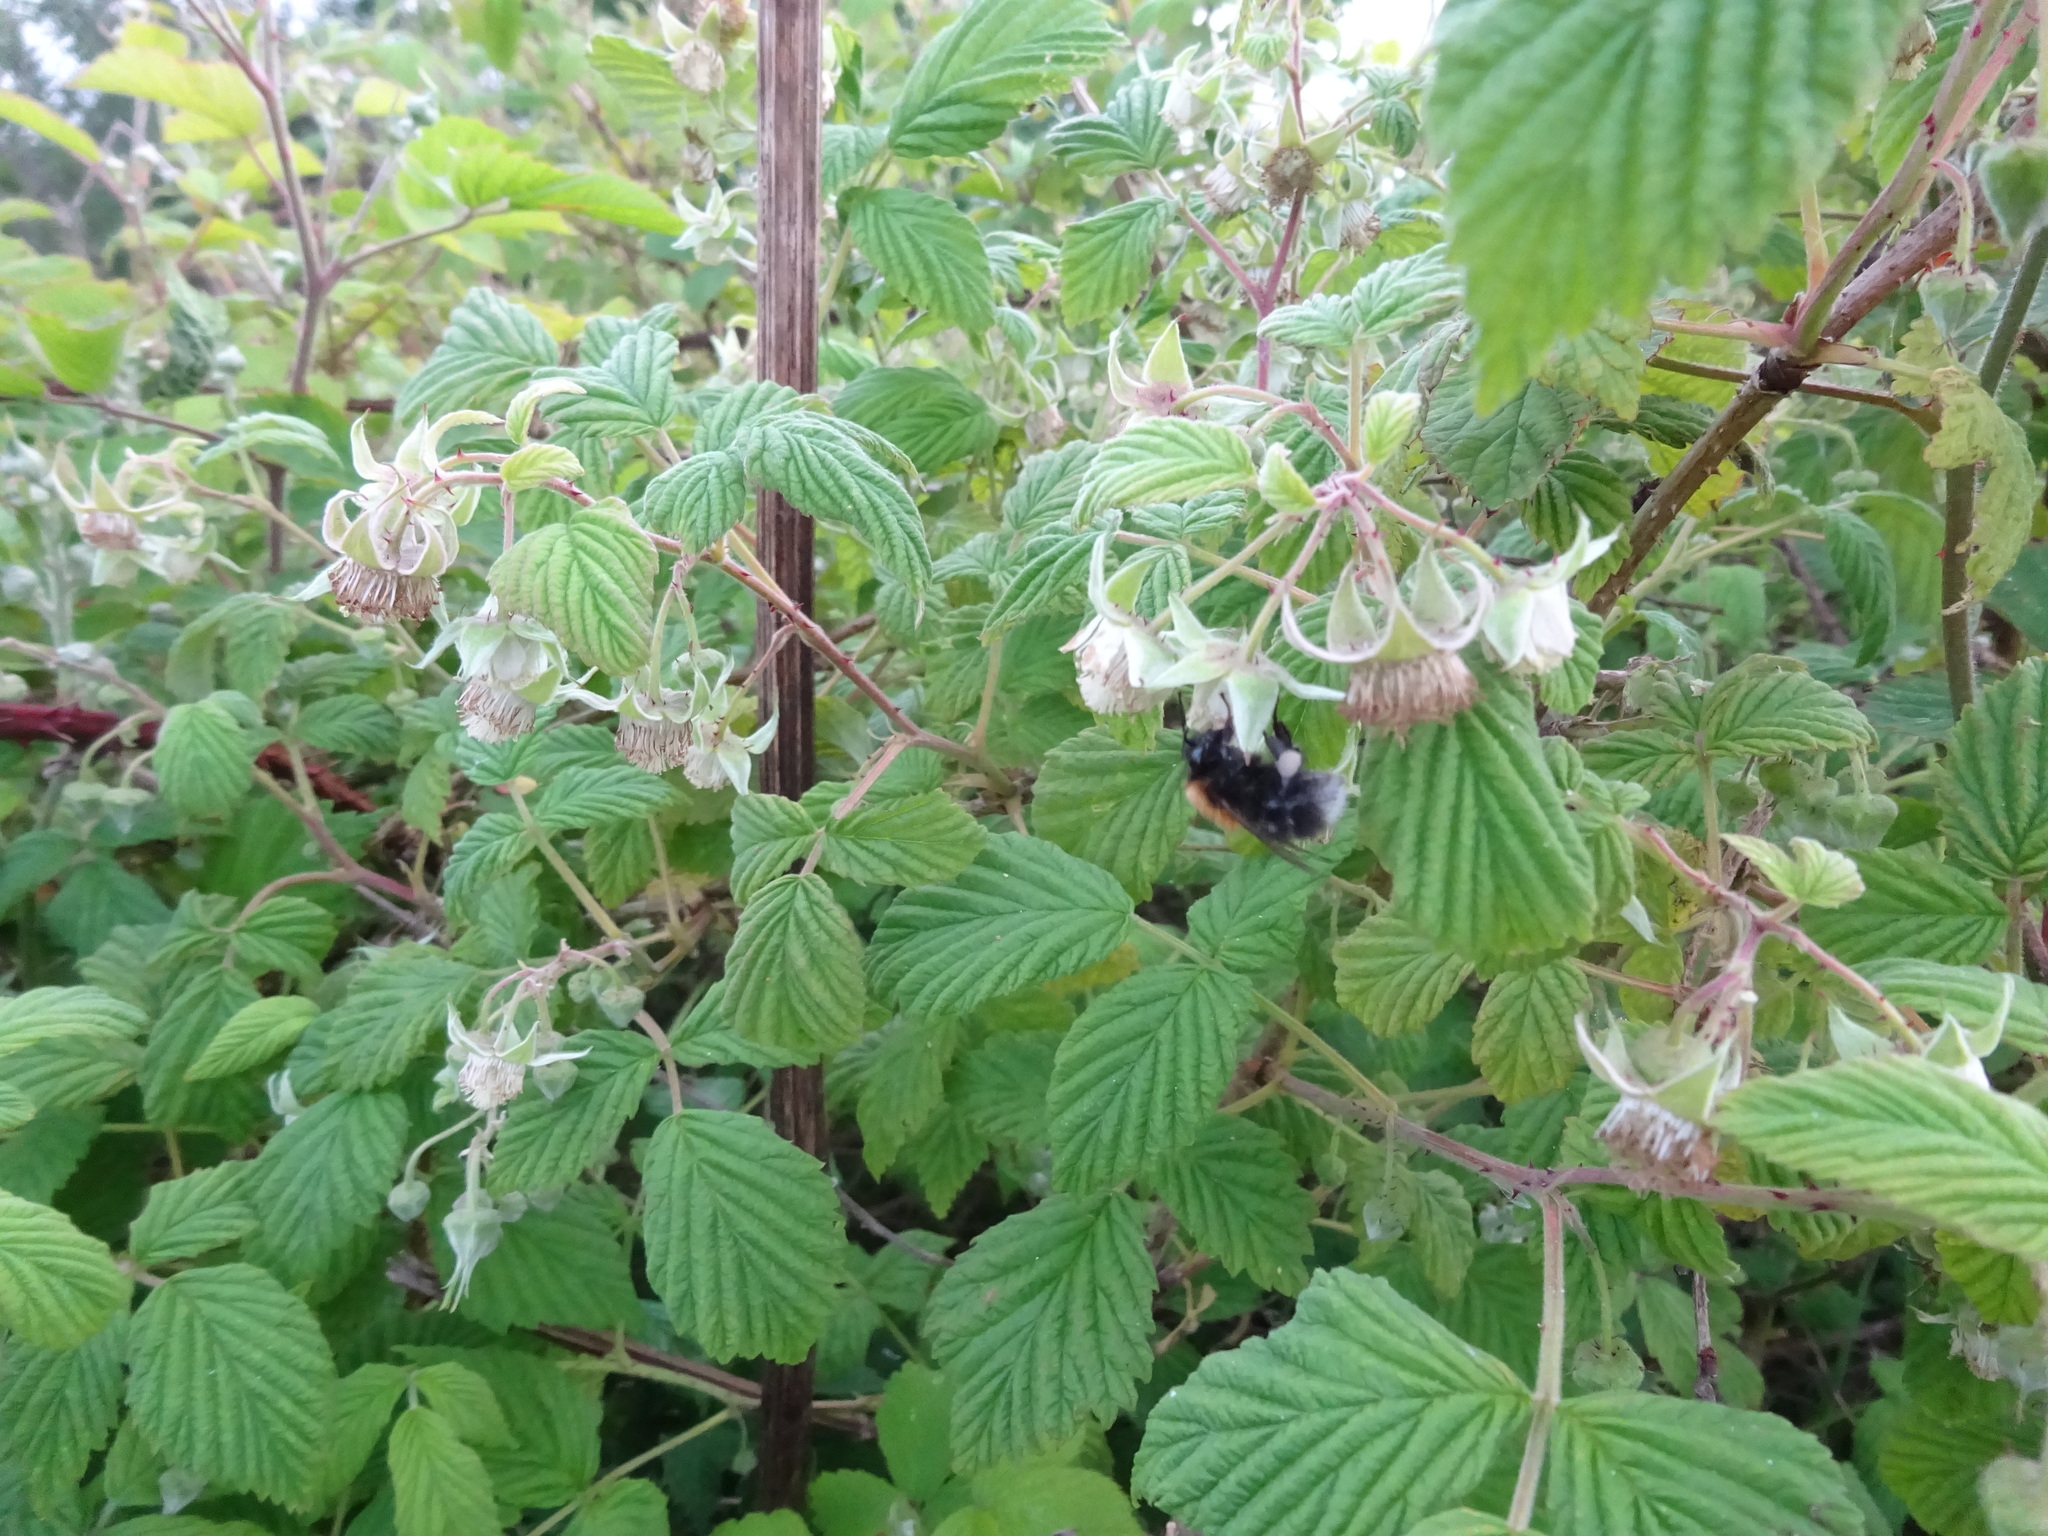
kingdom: Animalia
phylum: Arthropoda
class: Insecta
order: Hymenoptera
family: Apidae
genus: Bombus
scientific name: Bombus hypnorum
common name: New garden bumblebee
